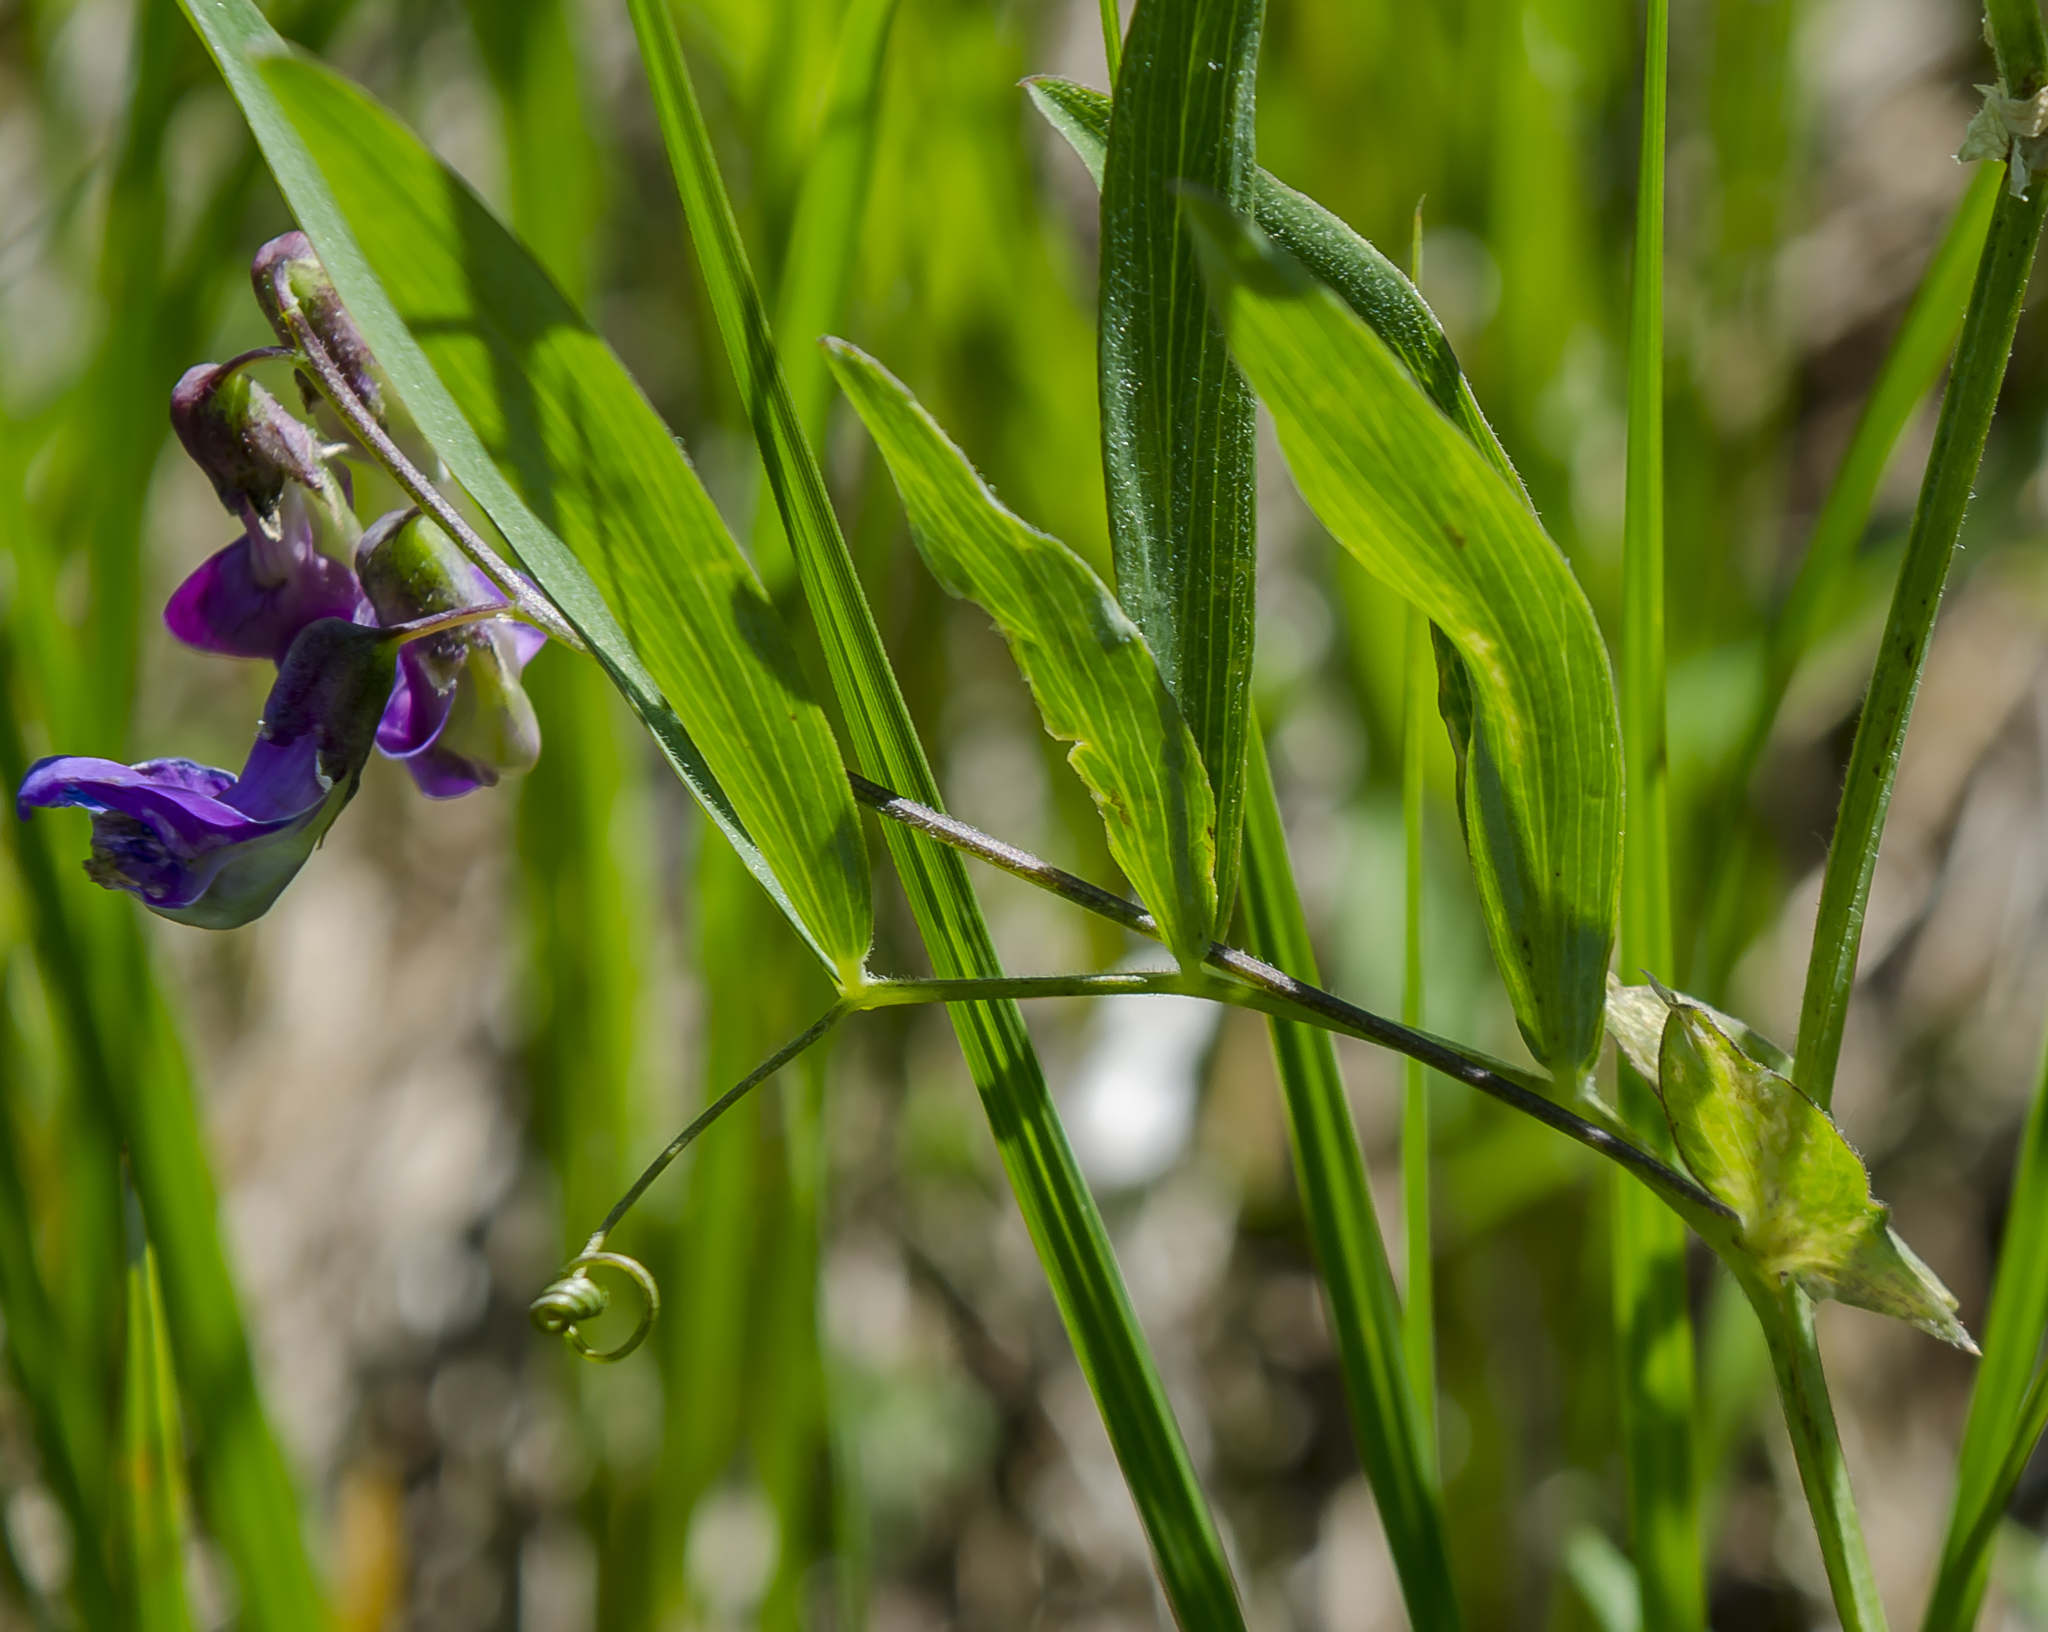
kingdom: Plantae
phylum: Tracheophyta
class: Magnoliopsida
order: Fabales
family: Fabaceae
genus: Lathyrus
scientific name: Lathyrus palustris
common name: Marsh pea
